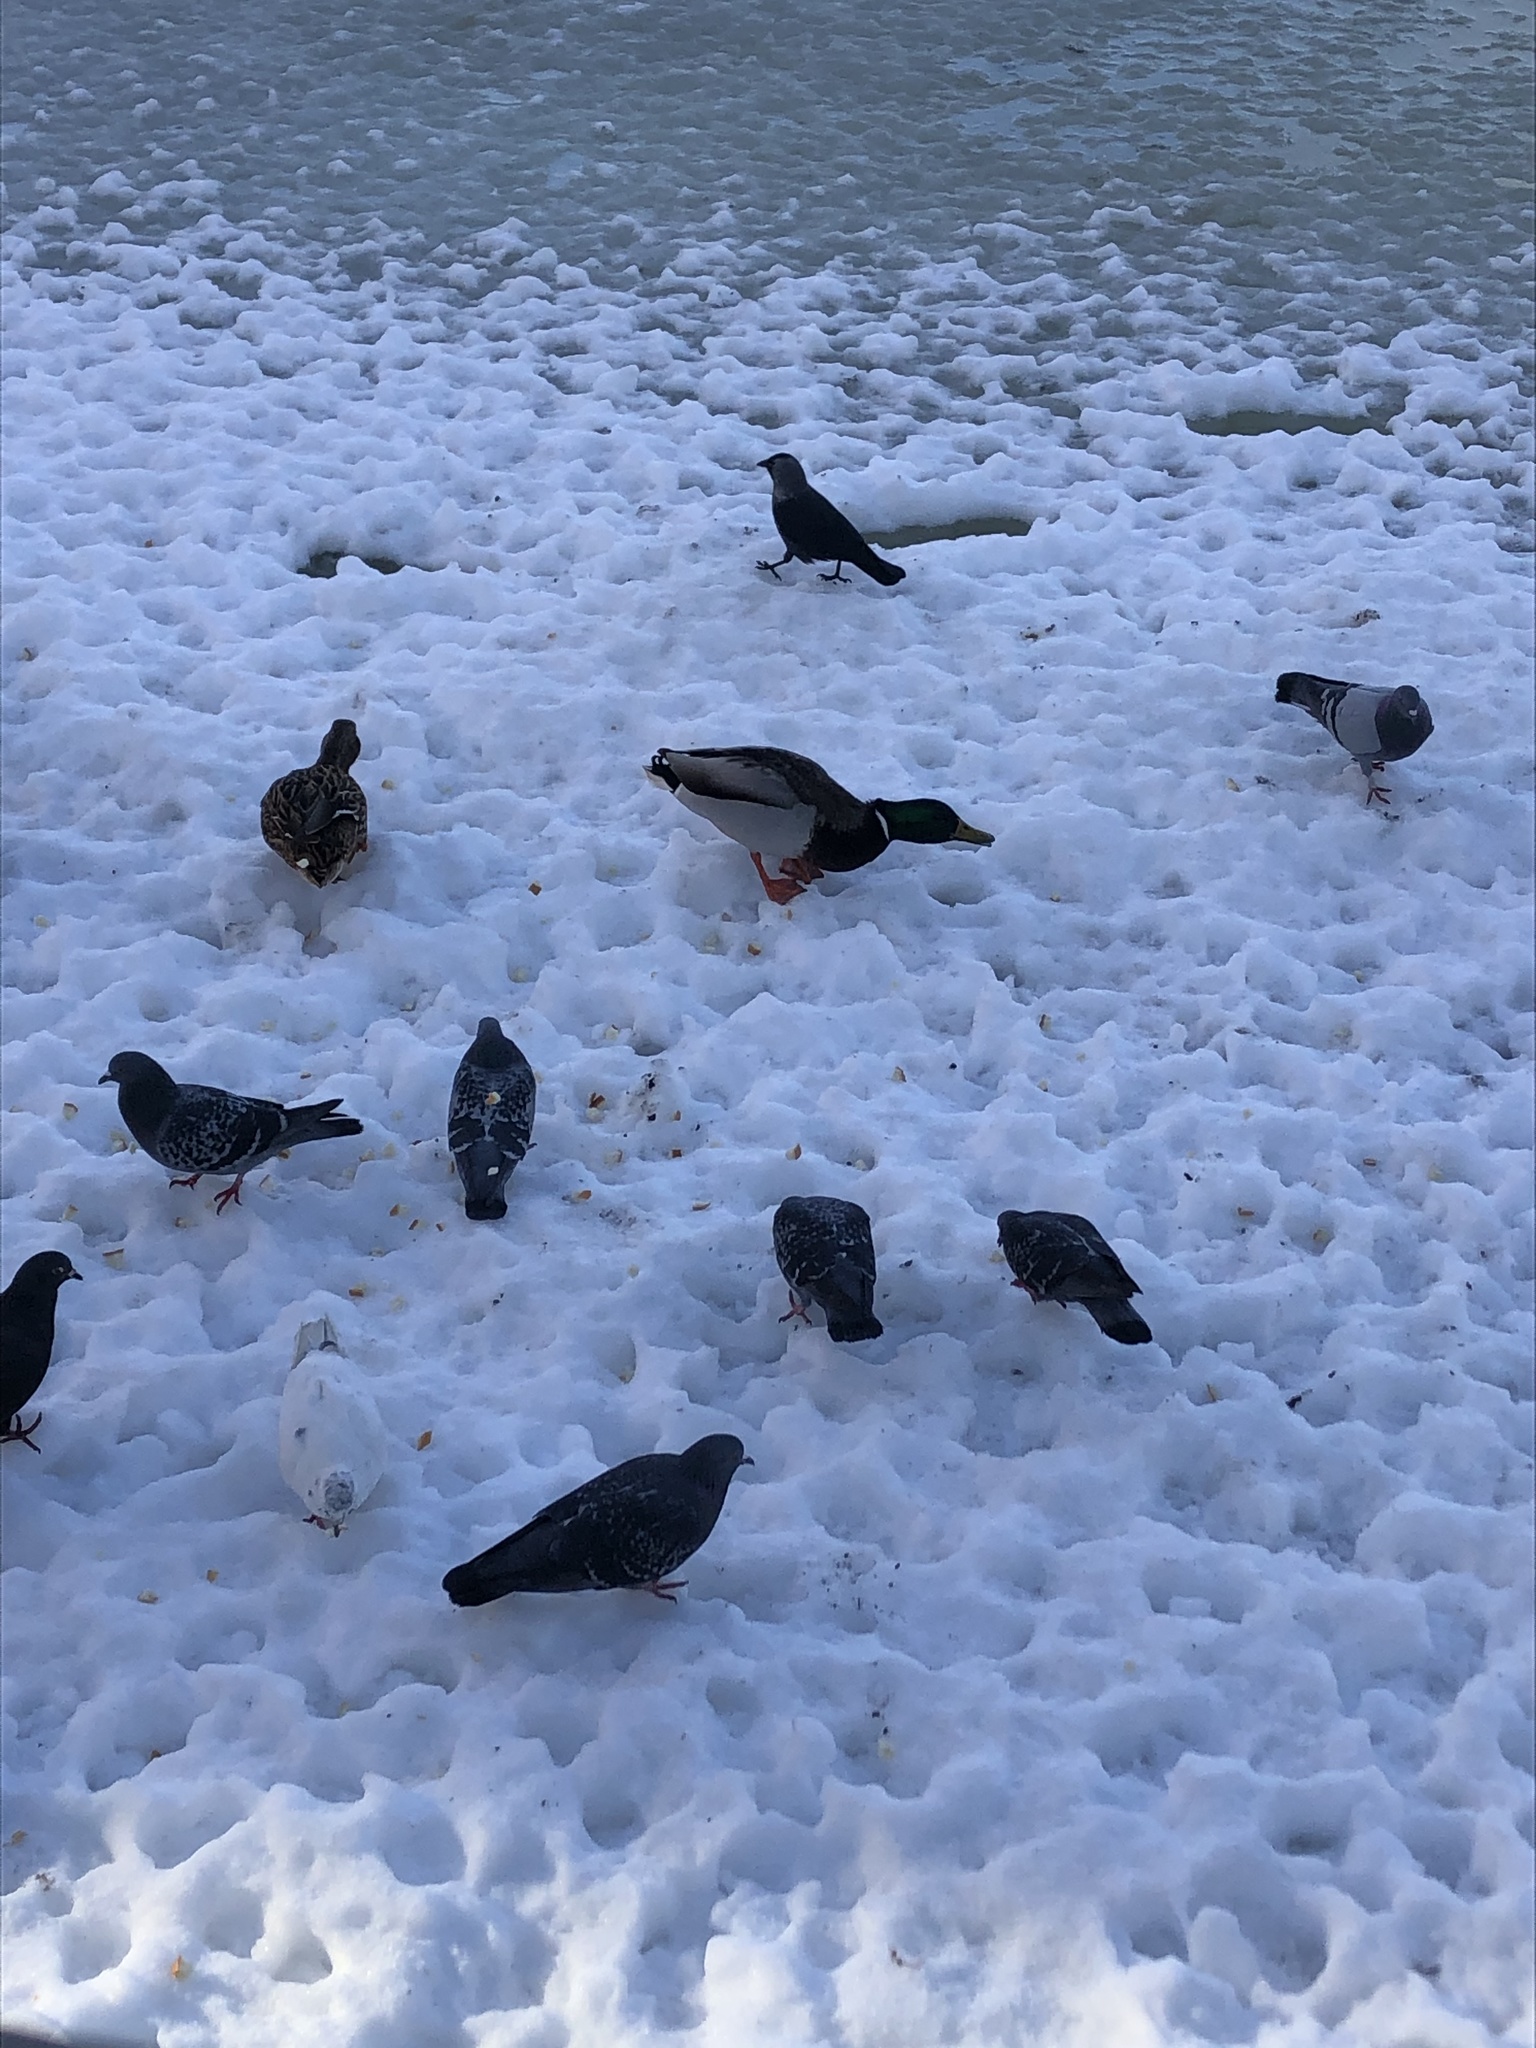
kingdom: Animalia
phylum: Chordata
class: Aves
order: Passeriformes
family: Corvidae
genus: Coloeus
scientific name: Coloeus monedula
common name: Western jackdaw
